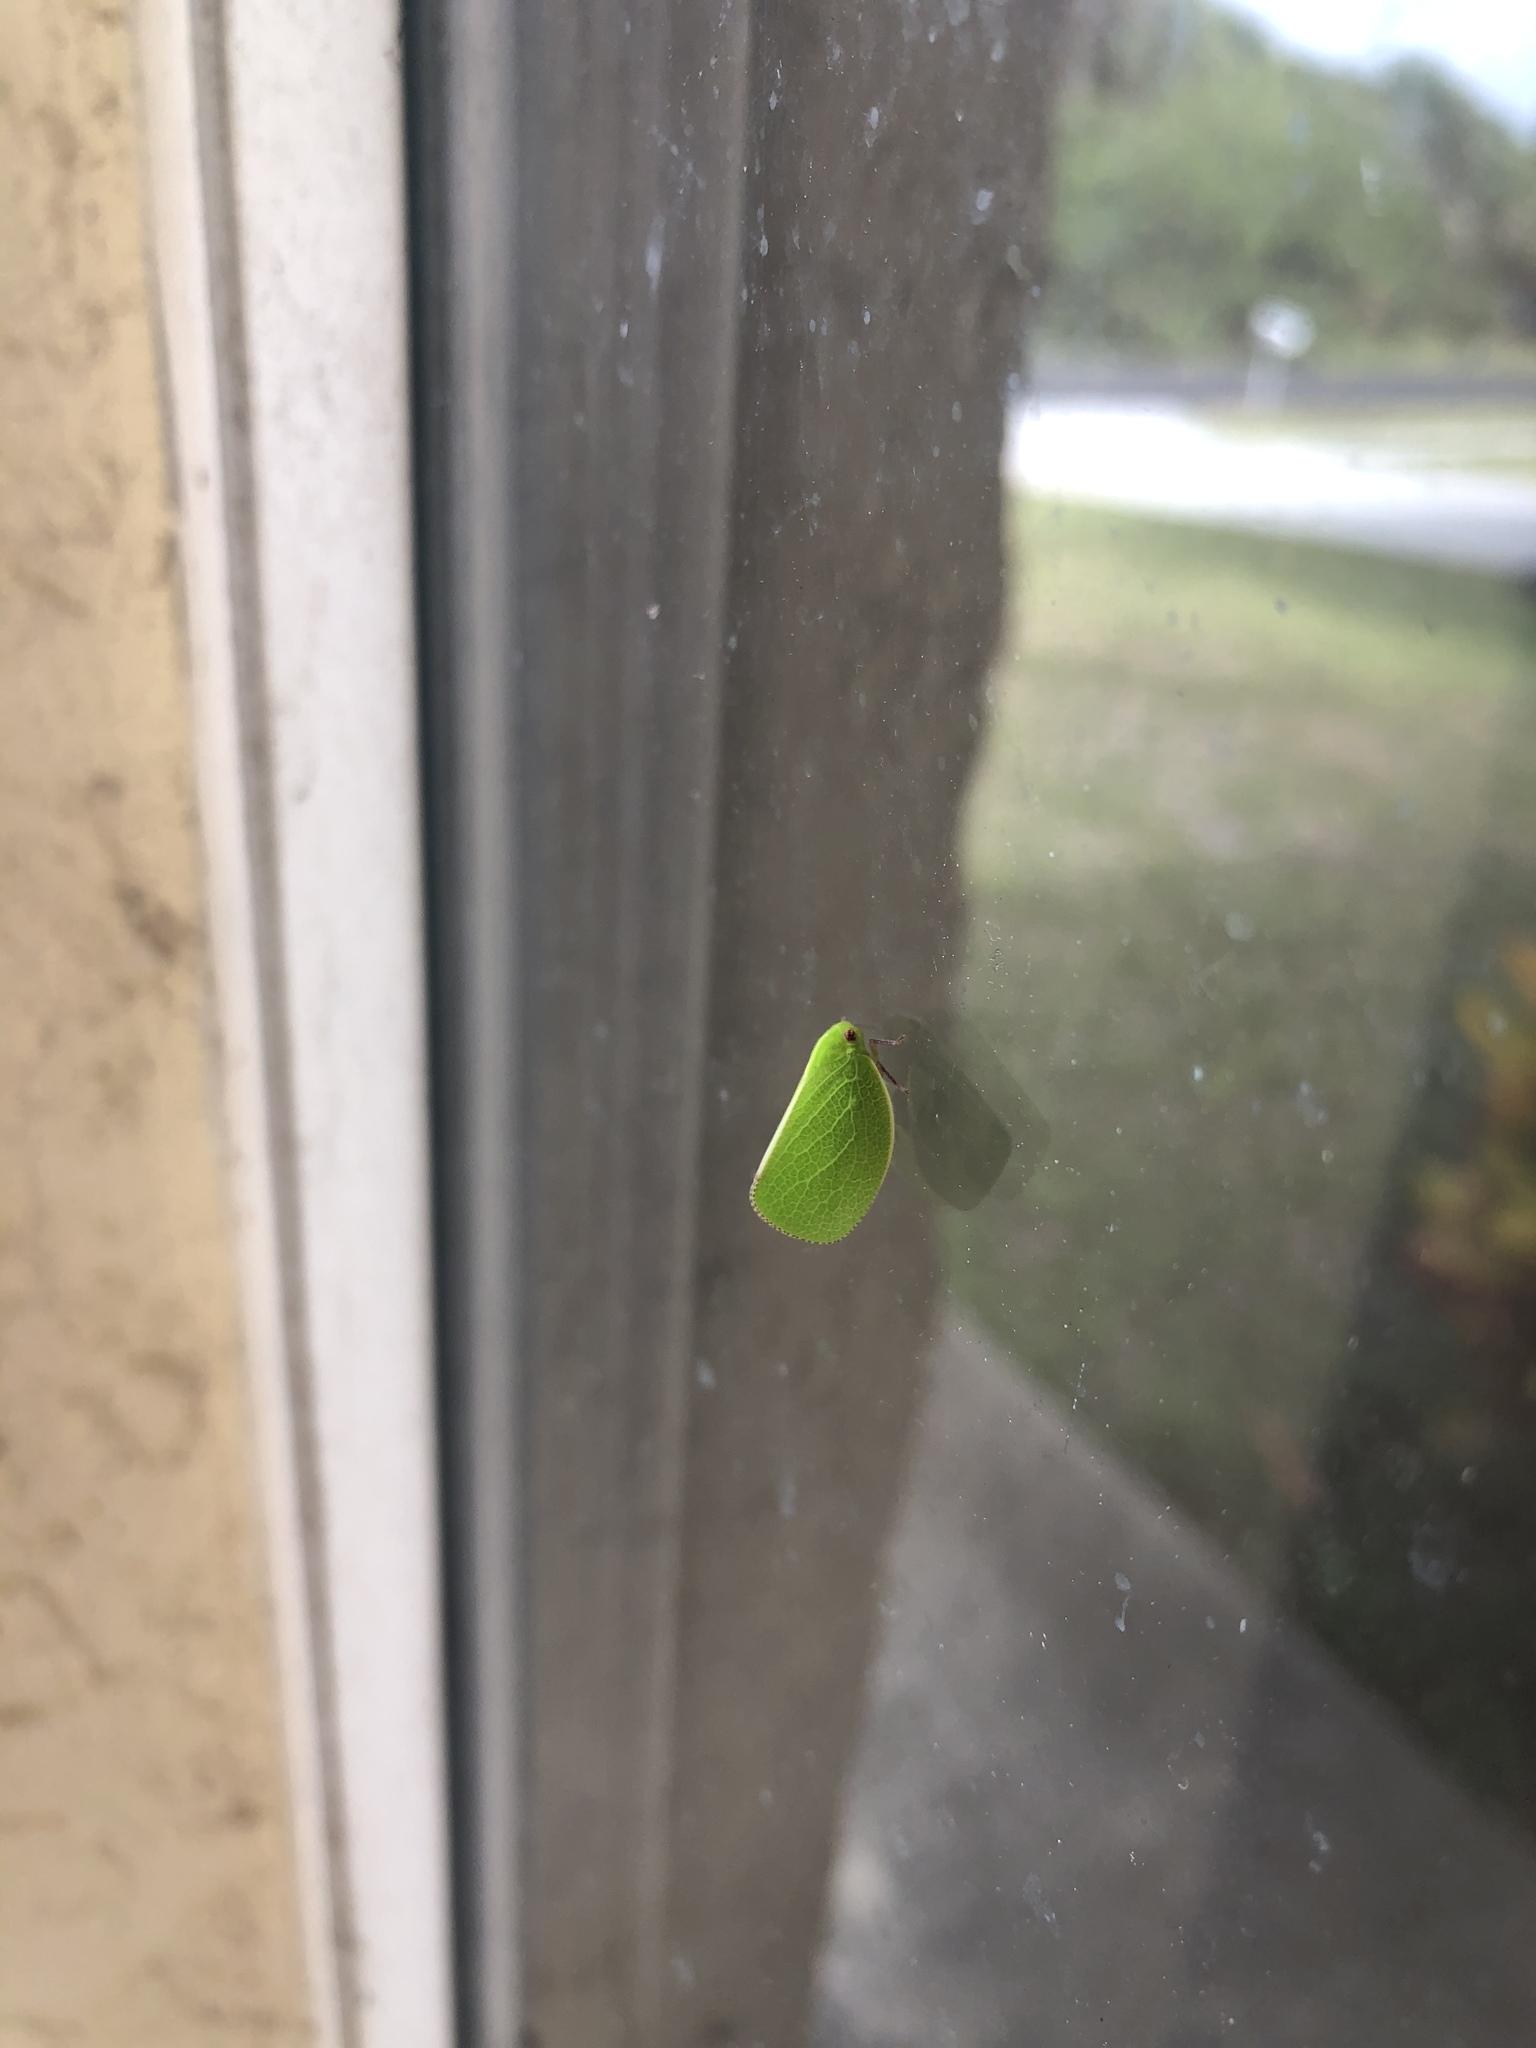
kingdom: Animalia
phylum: Arthropoda
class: Insecta
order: Hemiptera
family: Acanaloniidae
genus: Acanalonia
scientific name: Acanalonia servillei
